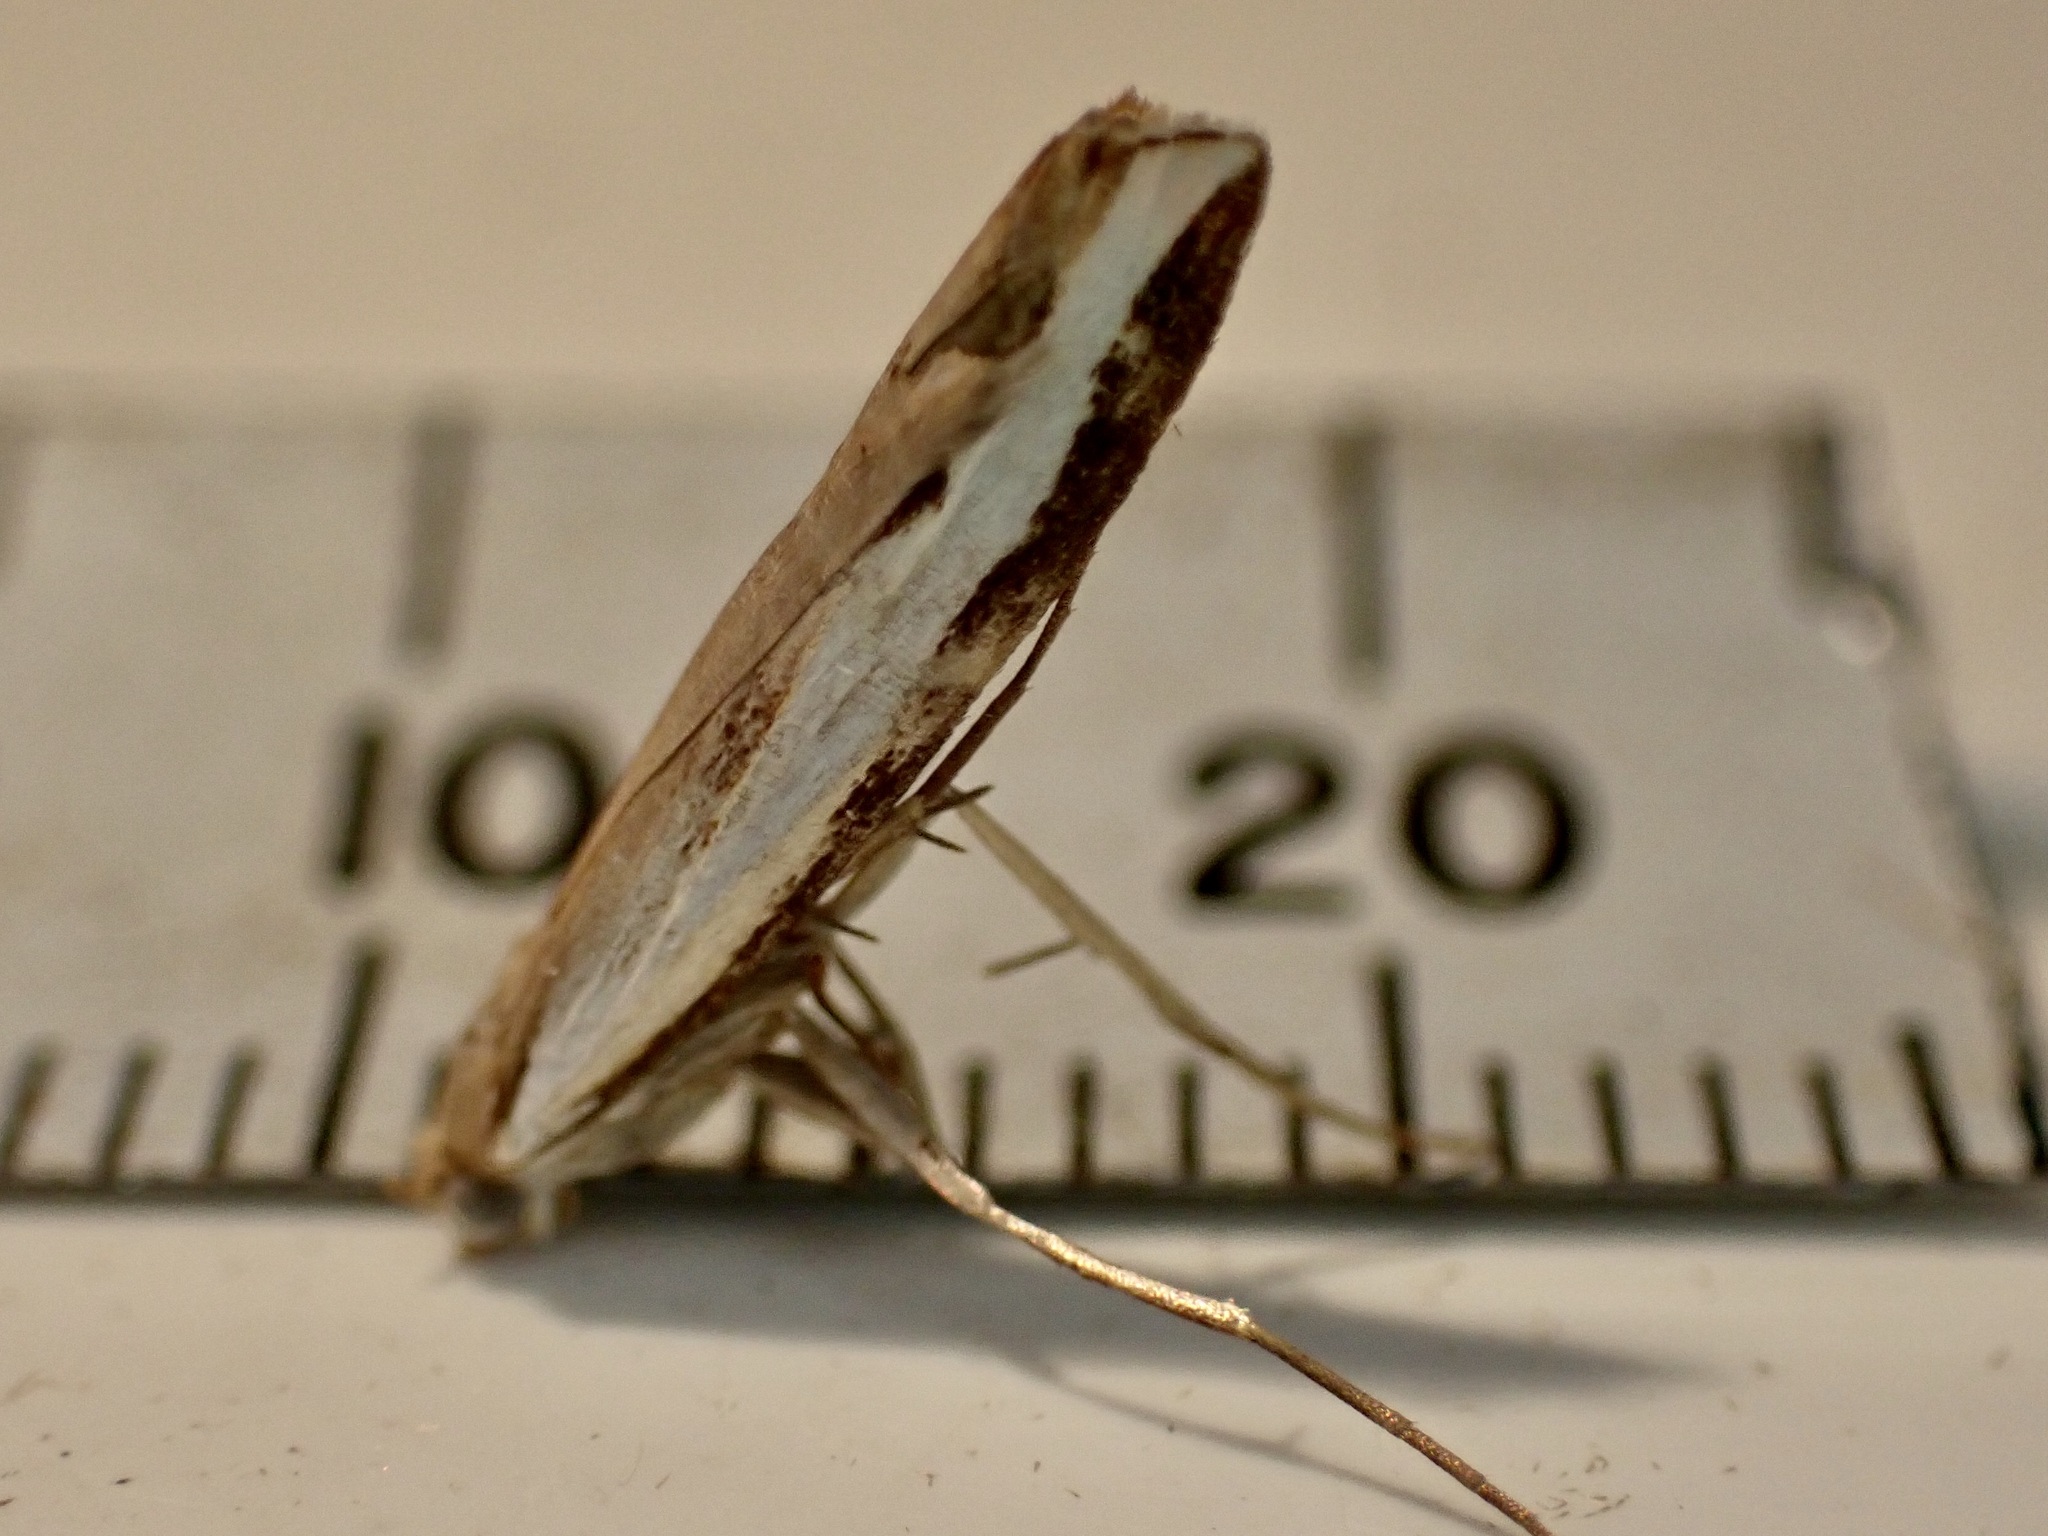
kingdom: Animalia
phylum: Arthropoda
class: Insecta
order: Lepidoptera
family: Crambidae
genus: Orocrambus
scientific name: Orocrambus flexuosellus
